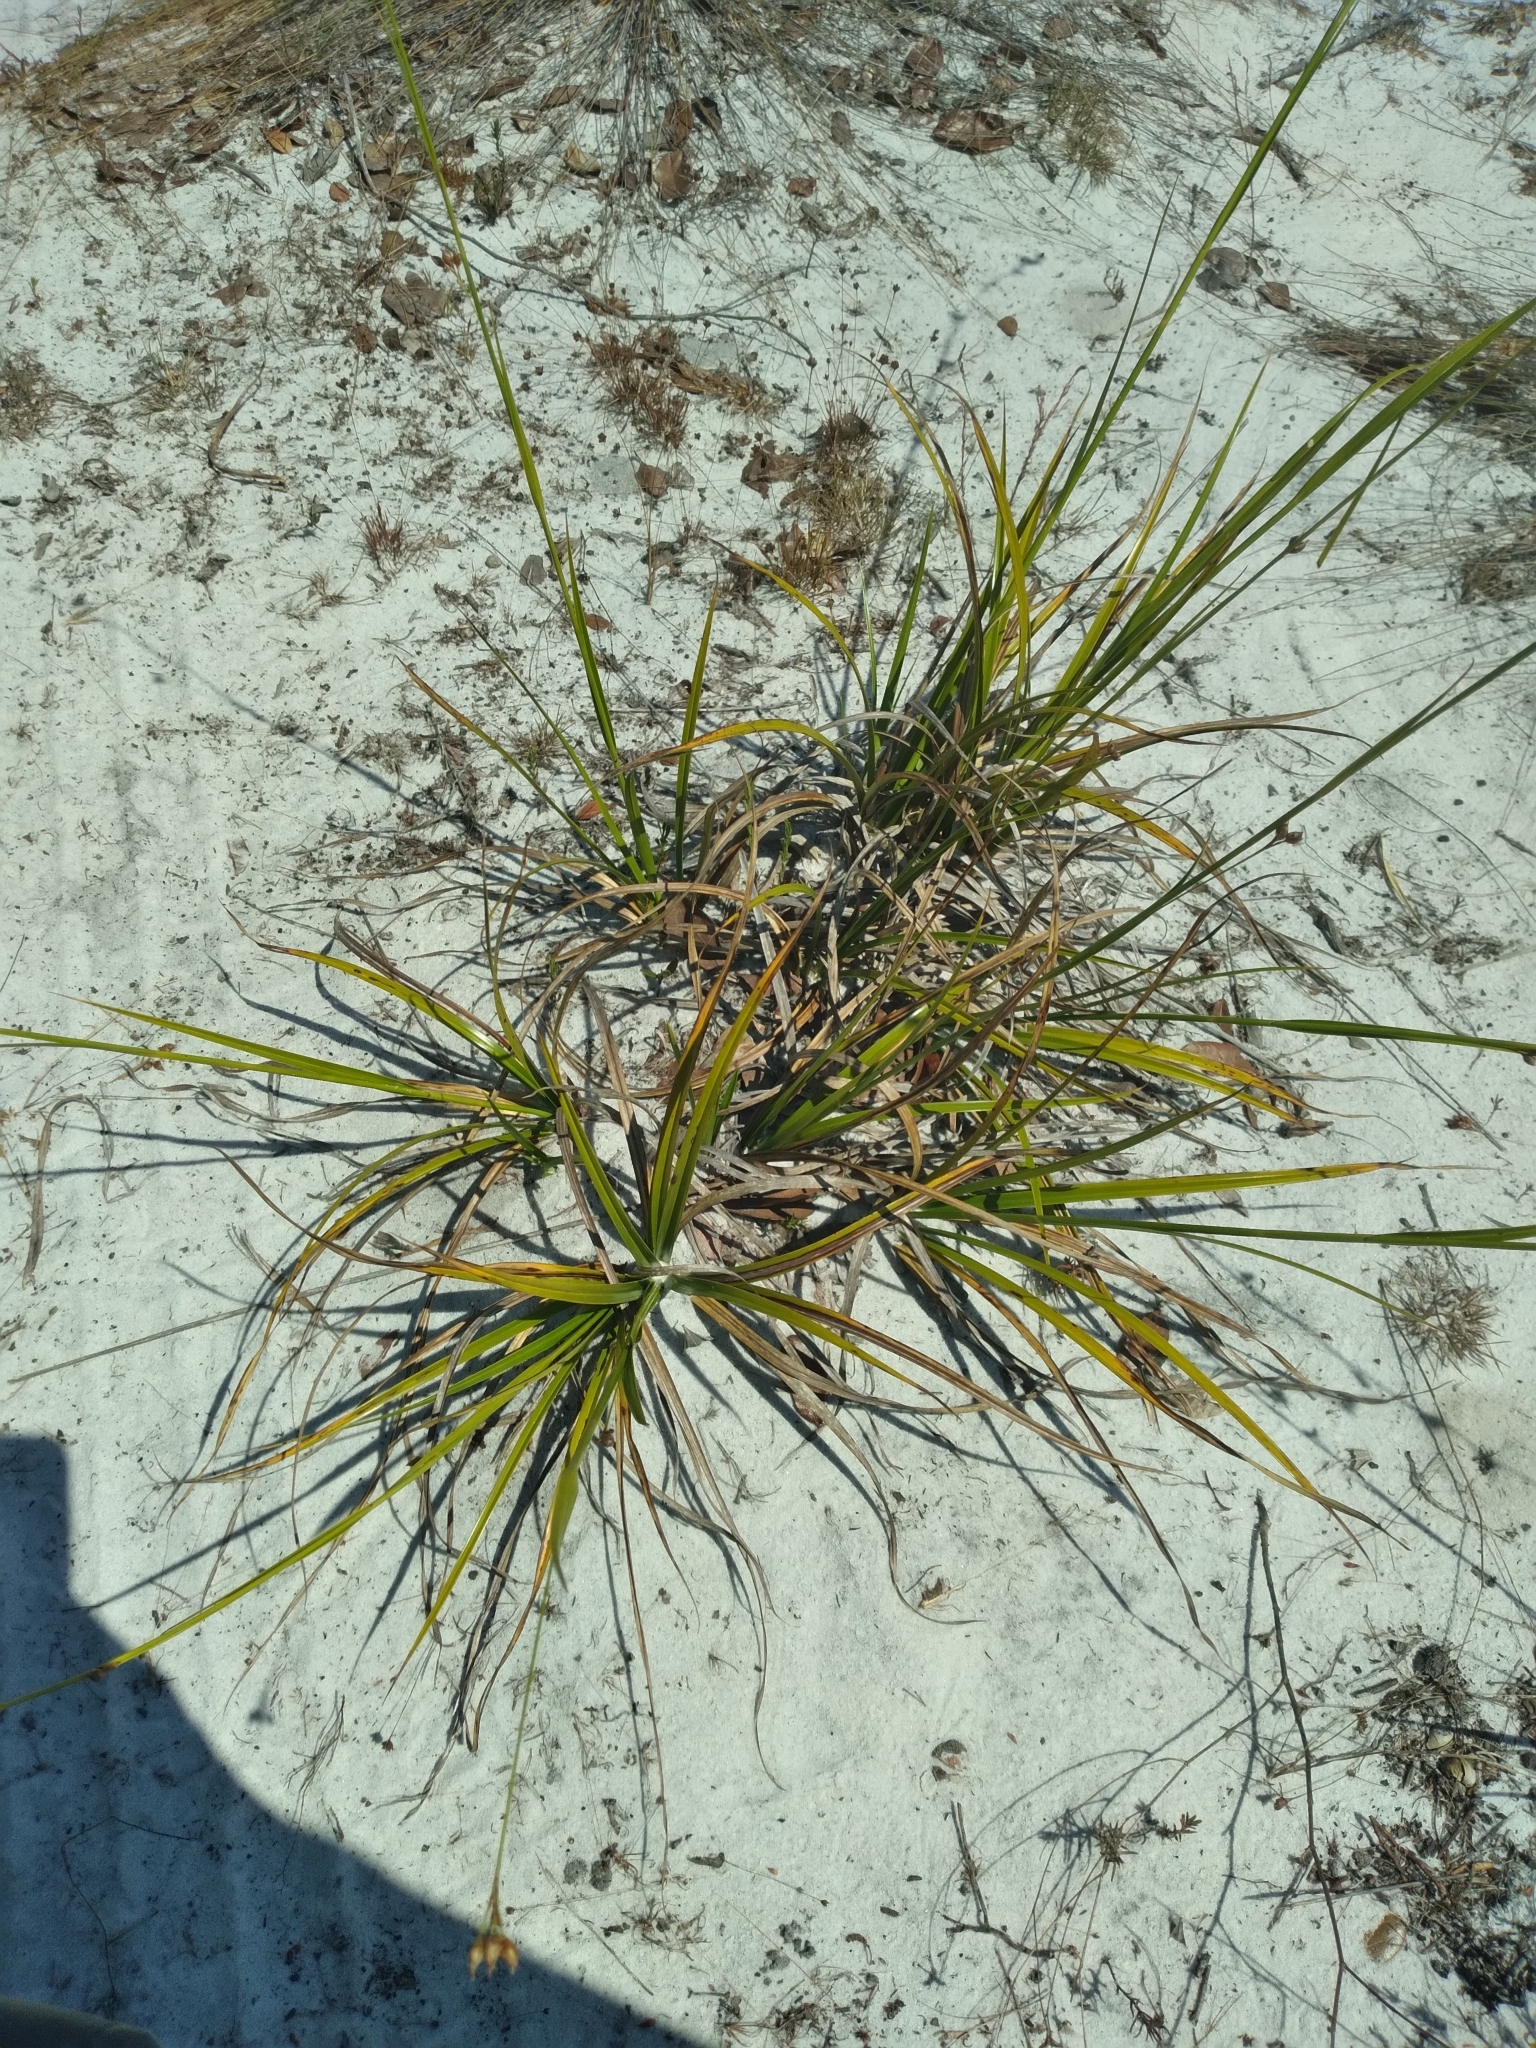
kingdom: Plantae
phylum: Tracheophyta
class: Liliopsida
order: Poales
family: Cyperaceae
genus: Rhynchospora
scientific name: Rhynchospora megalocarpa
